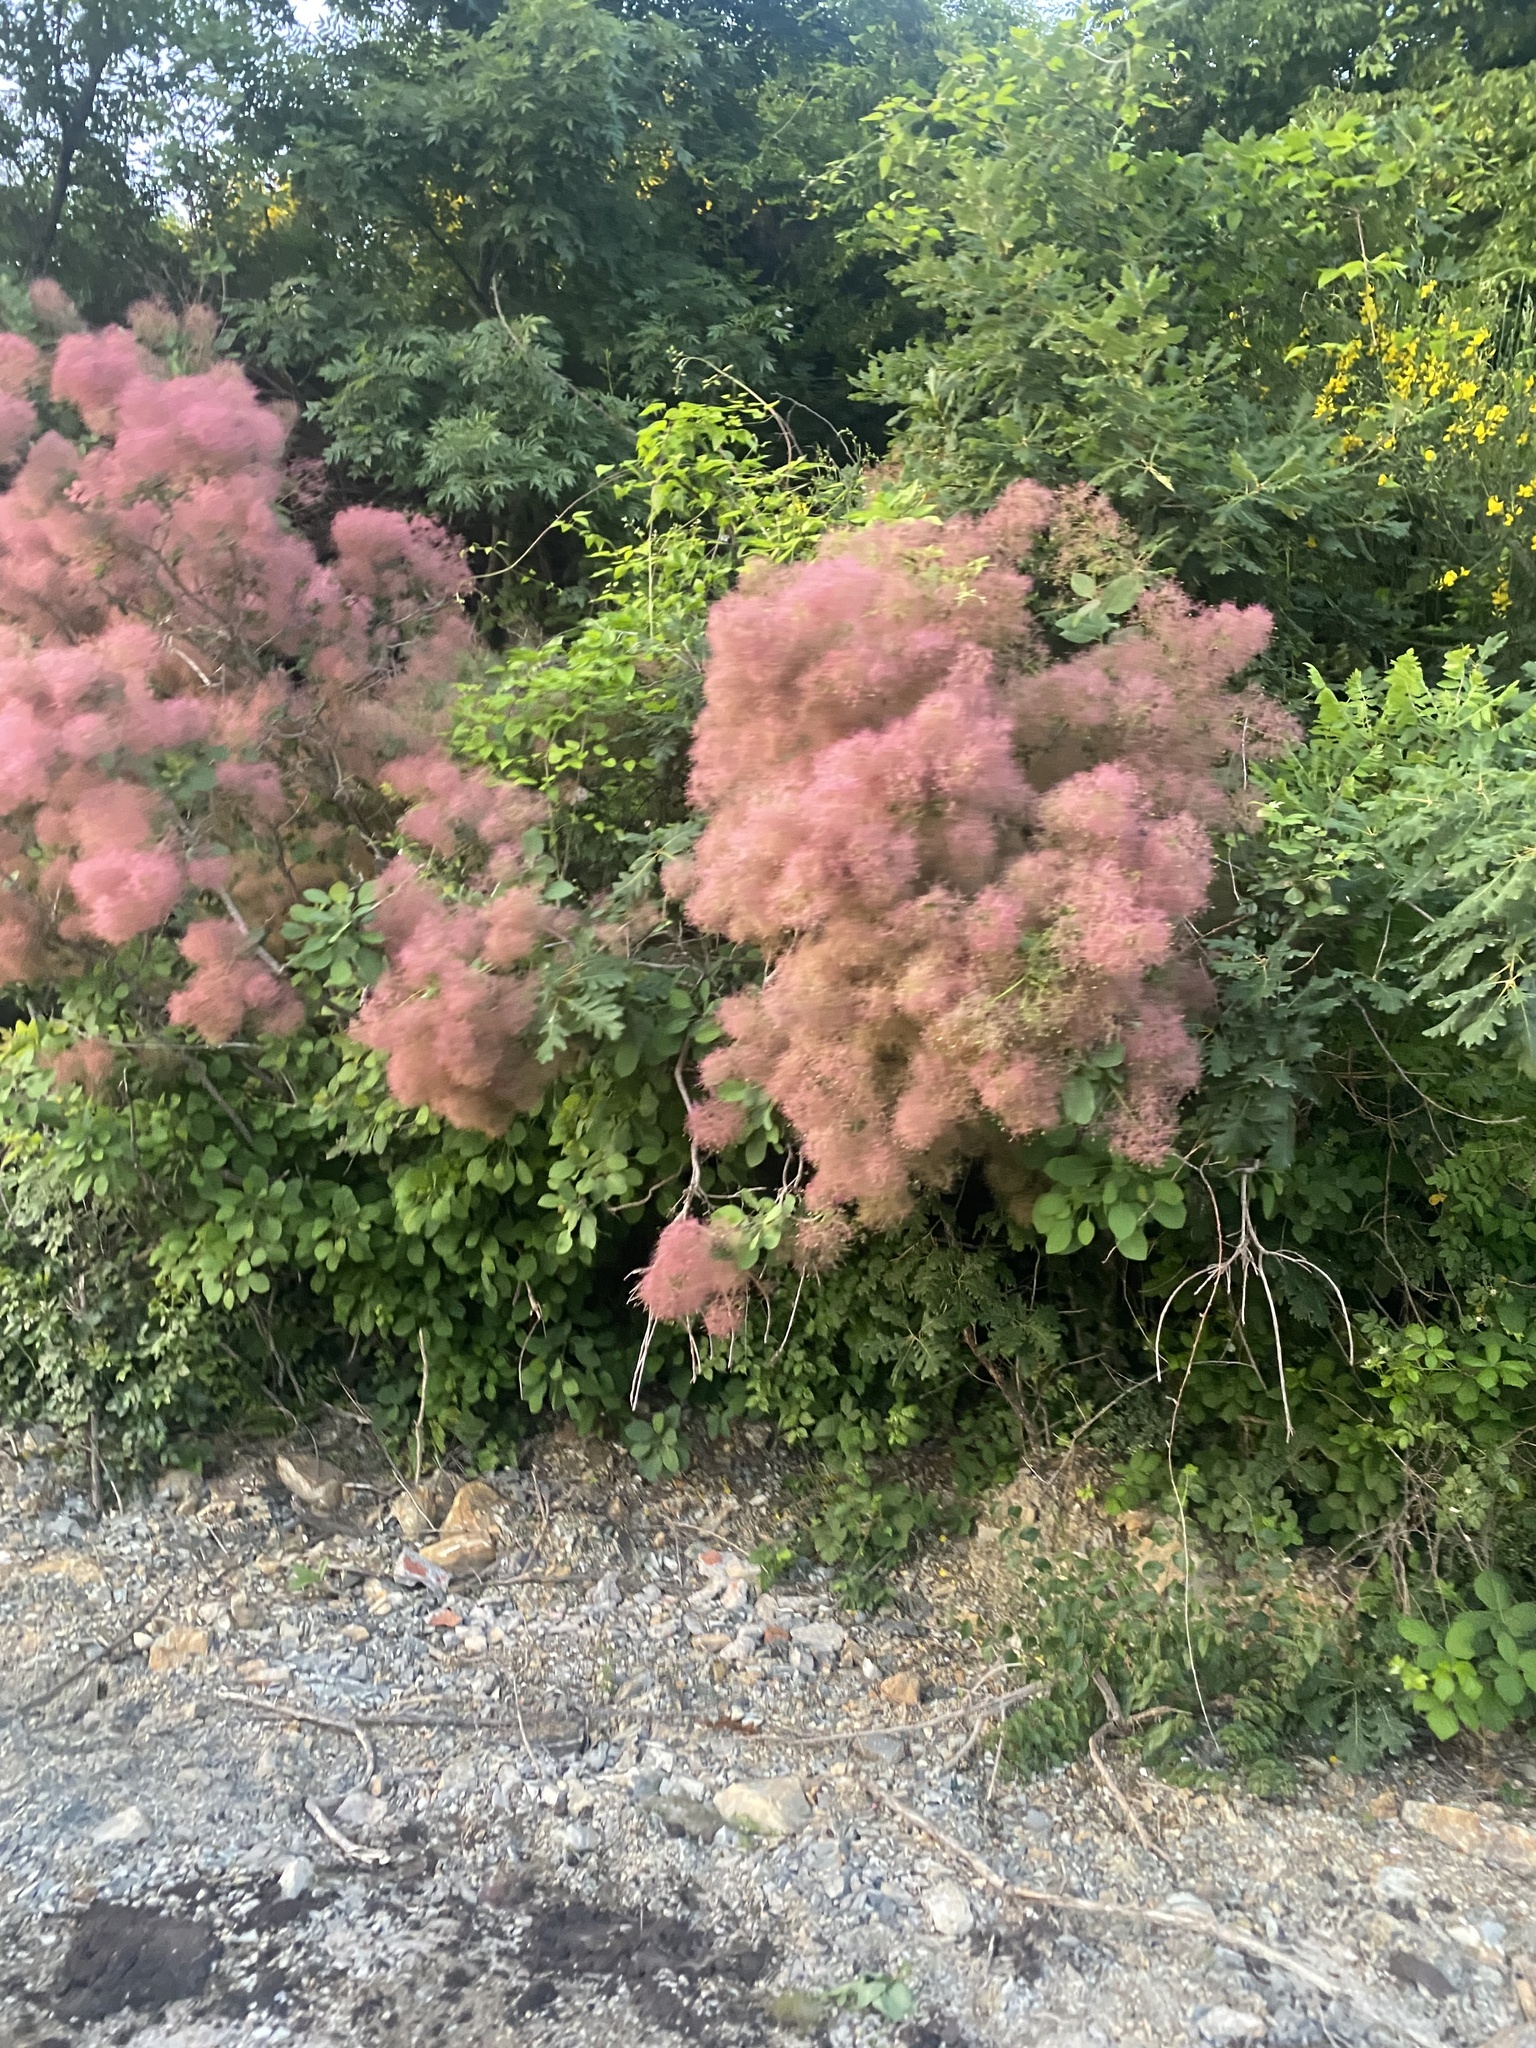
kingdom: Plantae
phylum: Tracheophyta
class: Magnoliopsida
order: Sapindales
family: Anacardiaceae
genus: Cotinus
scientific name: Cotinus coggygria
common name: Smoke-tree
